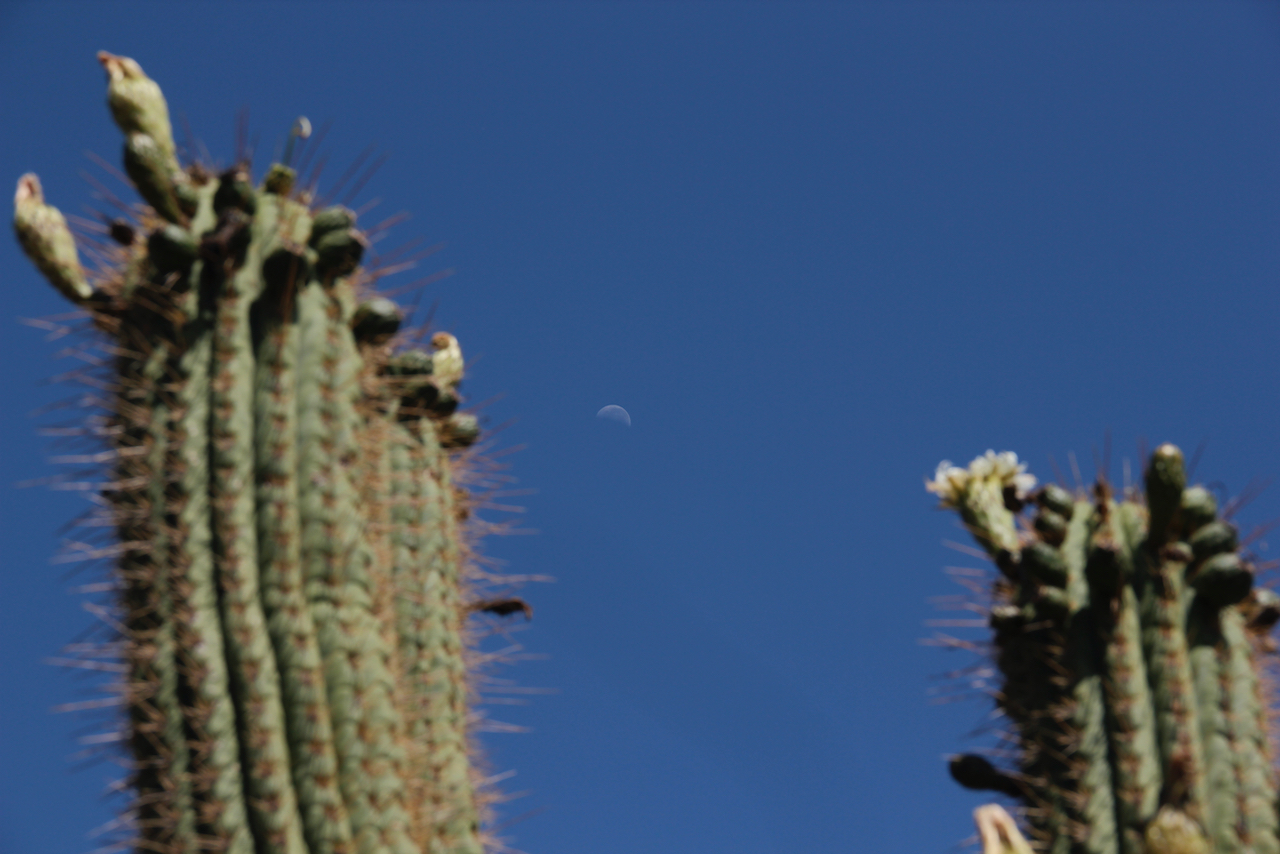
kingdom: Plantae
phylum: Tracheophyta
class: Magnoliopsida
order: Caryophyllales
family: Cactaceae
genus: Leucostele
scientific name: Leucostele chiloensis
